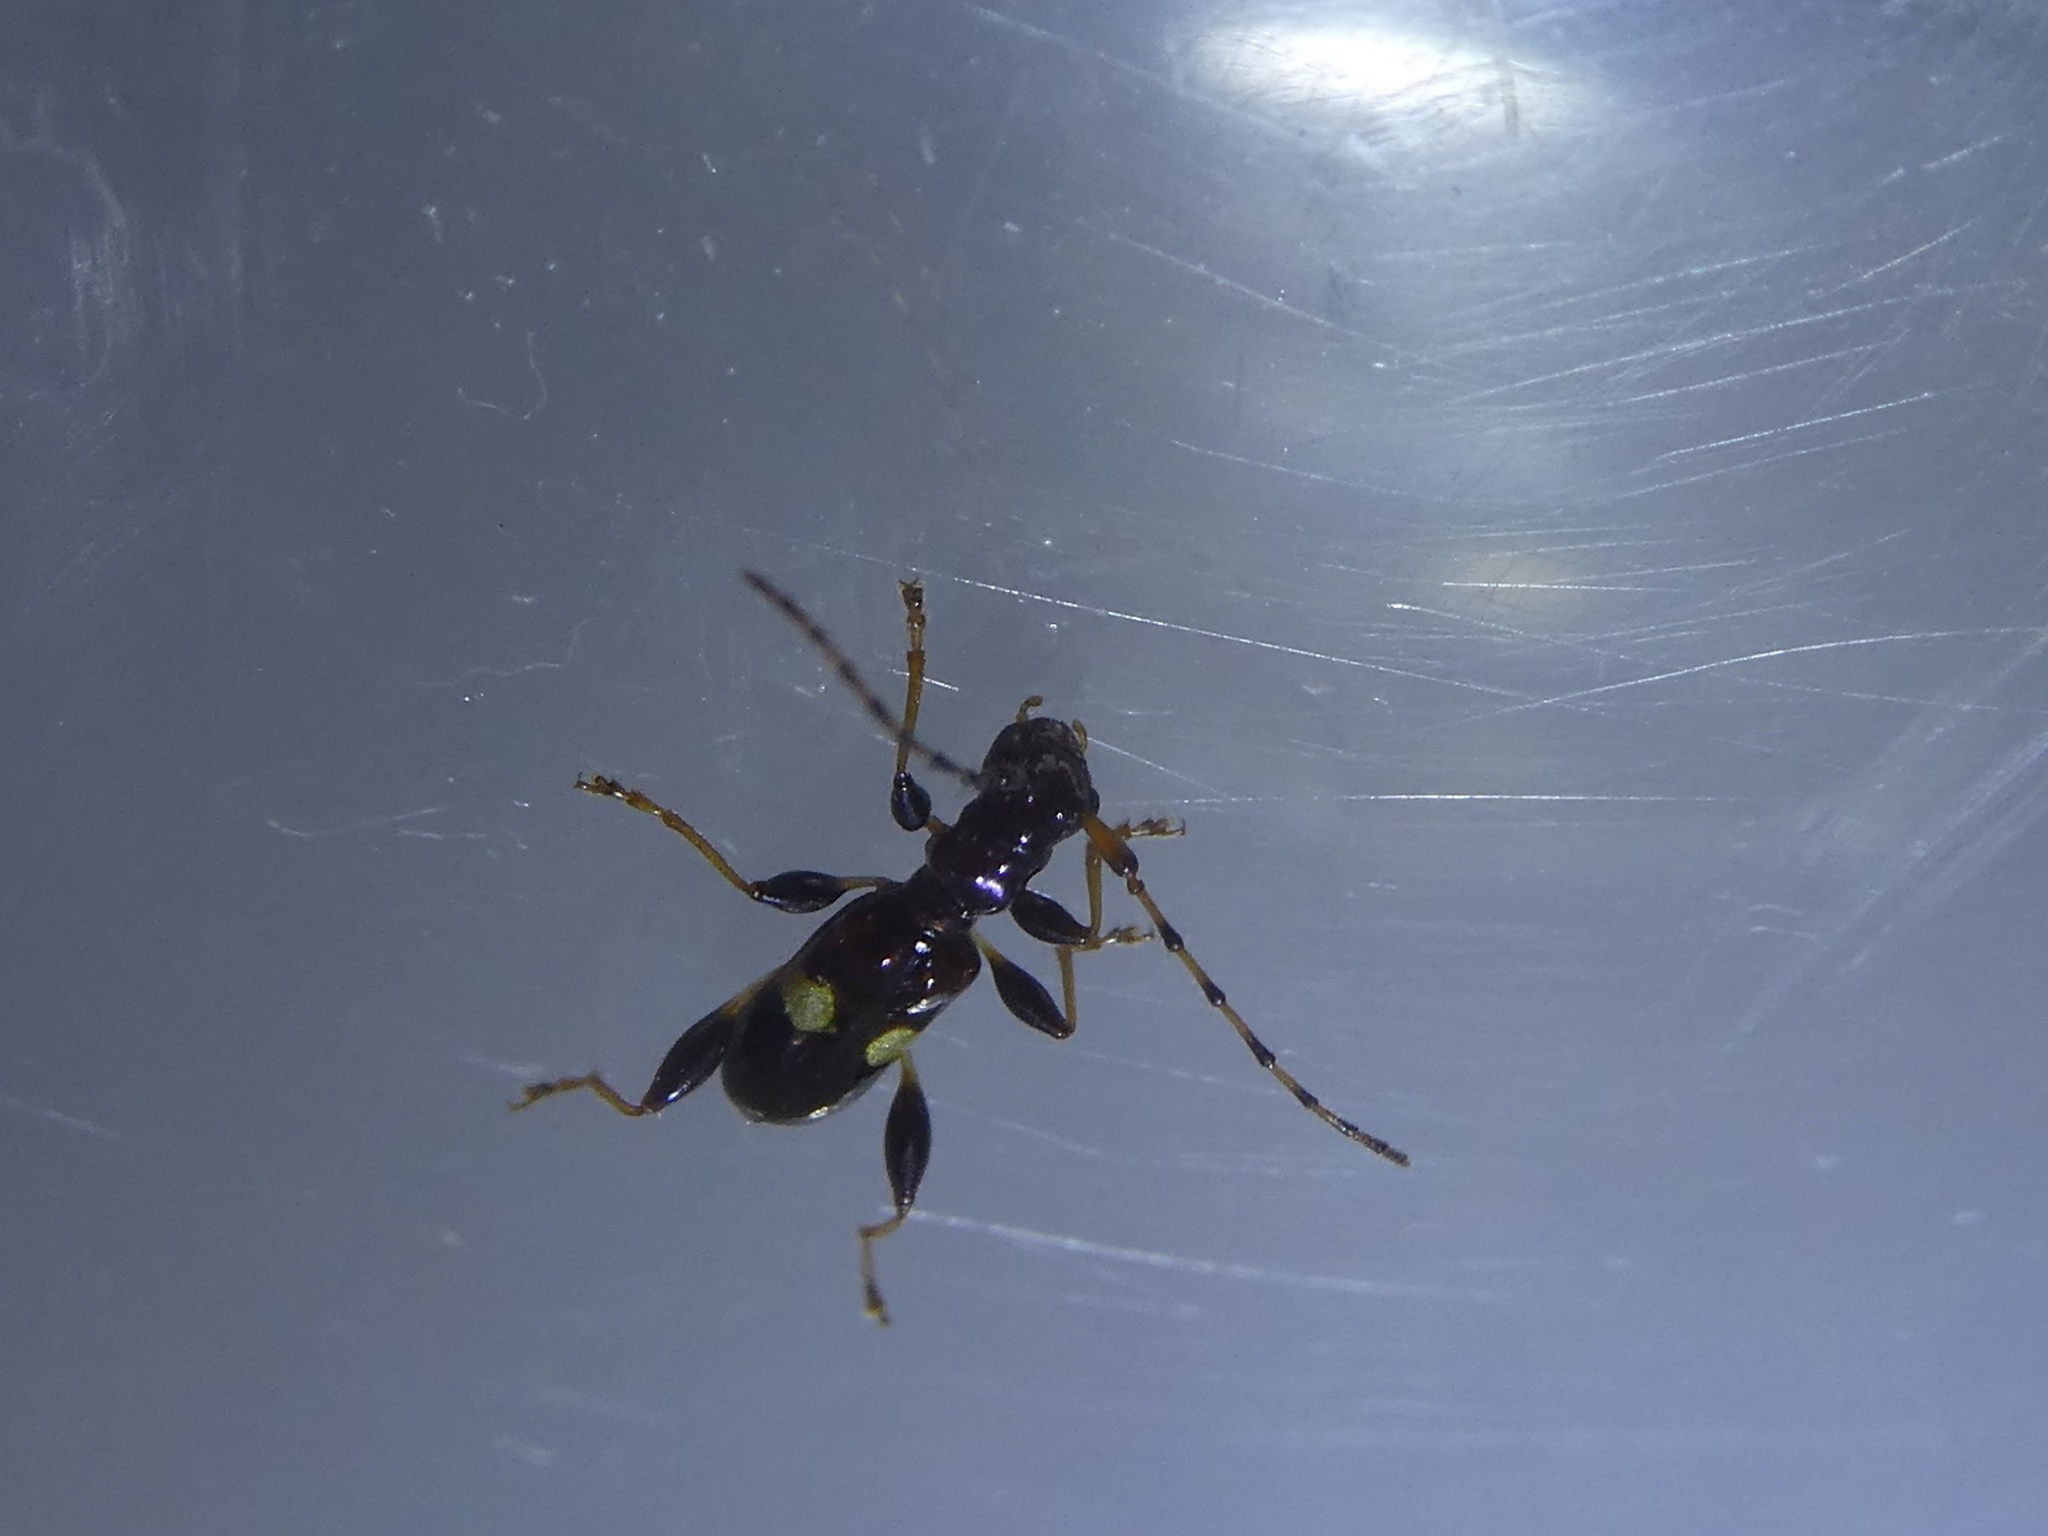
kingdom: Animalia
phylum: Arthropoda
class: Insecta
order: Coleoptera
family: Cerambycidae
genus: Zorion
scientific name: Zorion guttigerum
